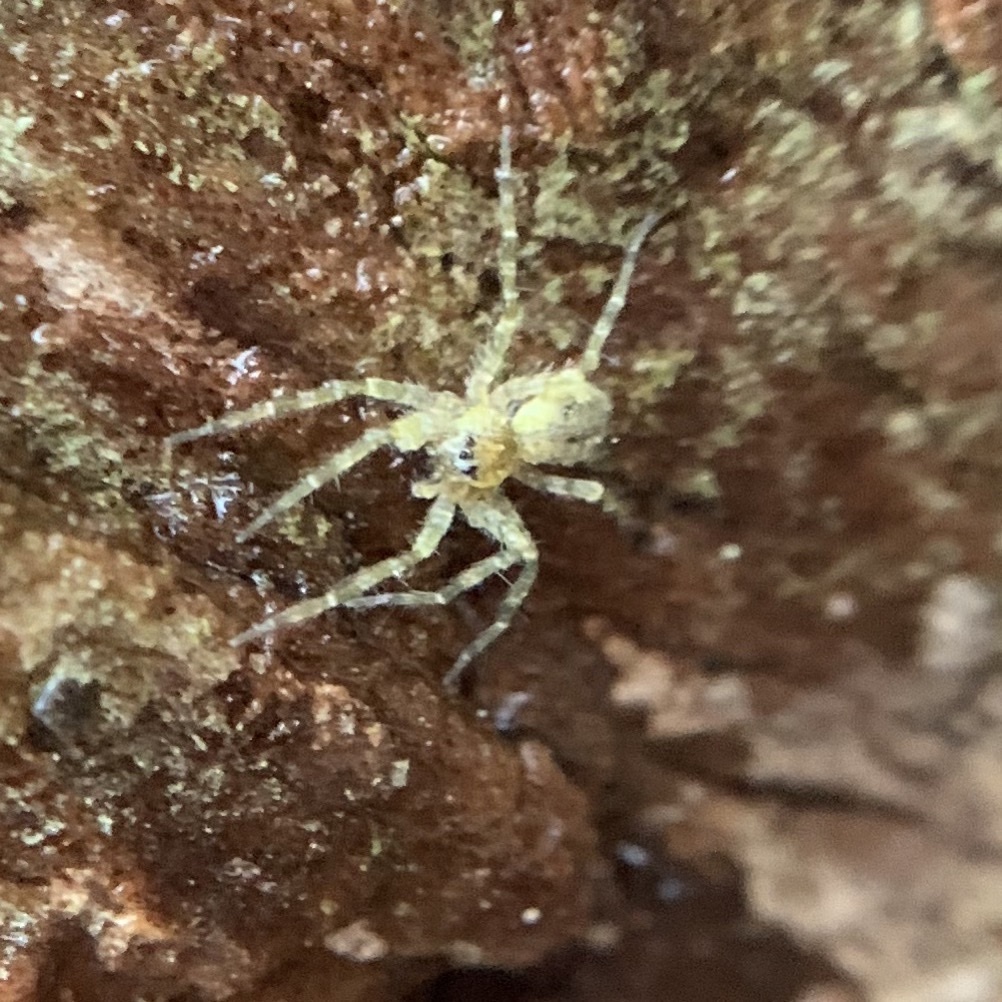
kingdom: Animalia
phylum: Arthropoda
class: Arachnida
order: Araneae
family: Pisauridae
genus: Dolomedes
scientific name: Dolomedes albineus
